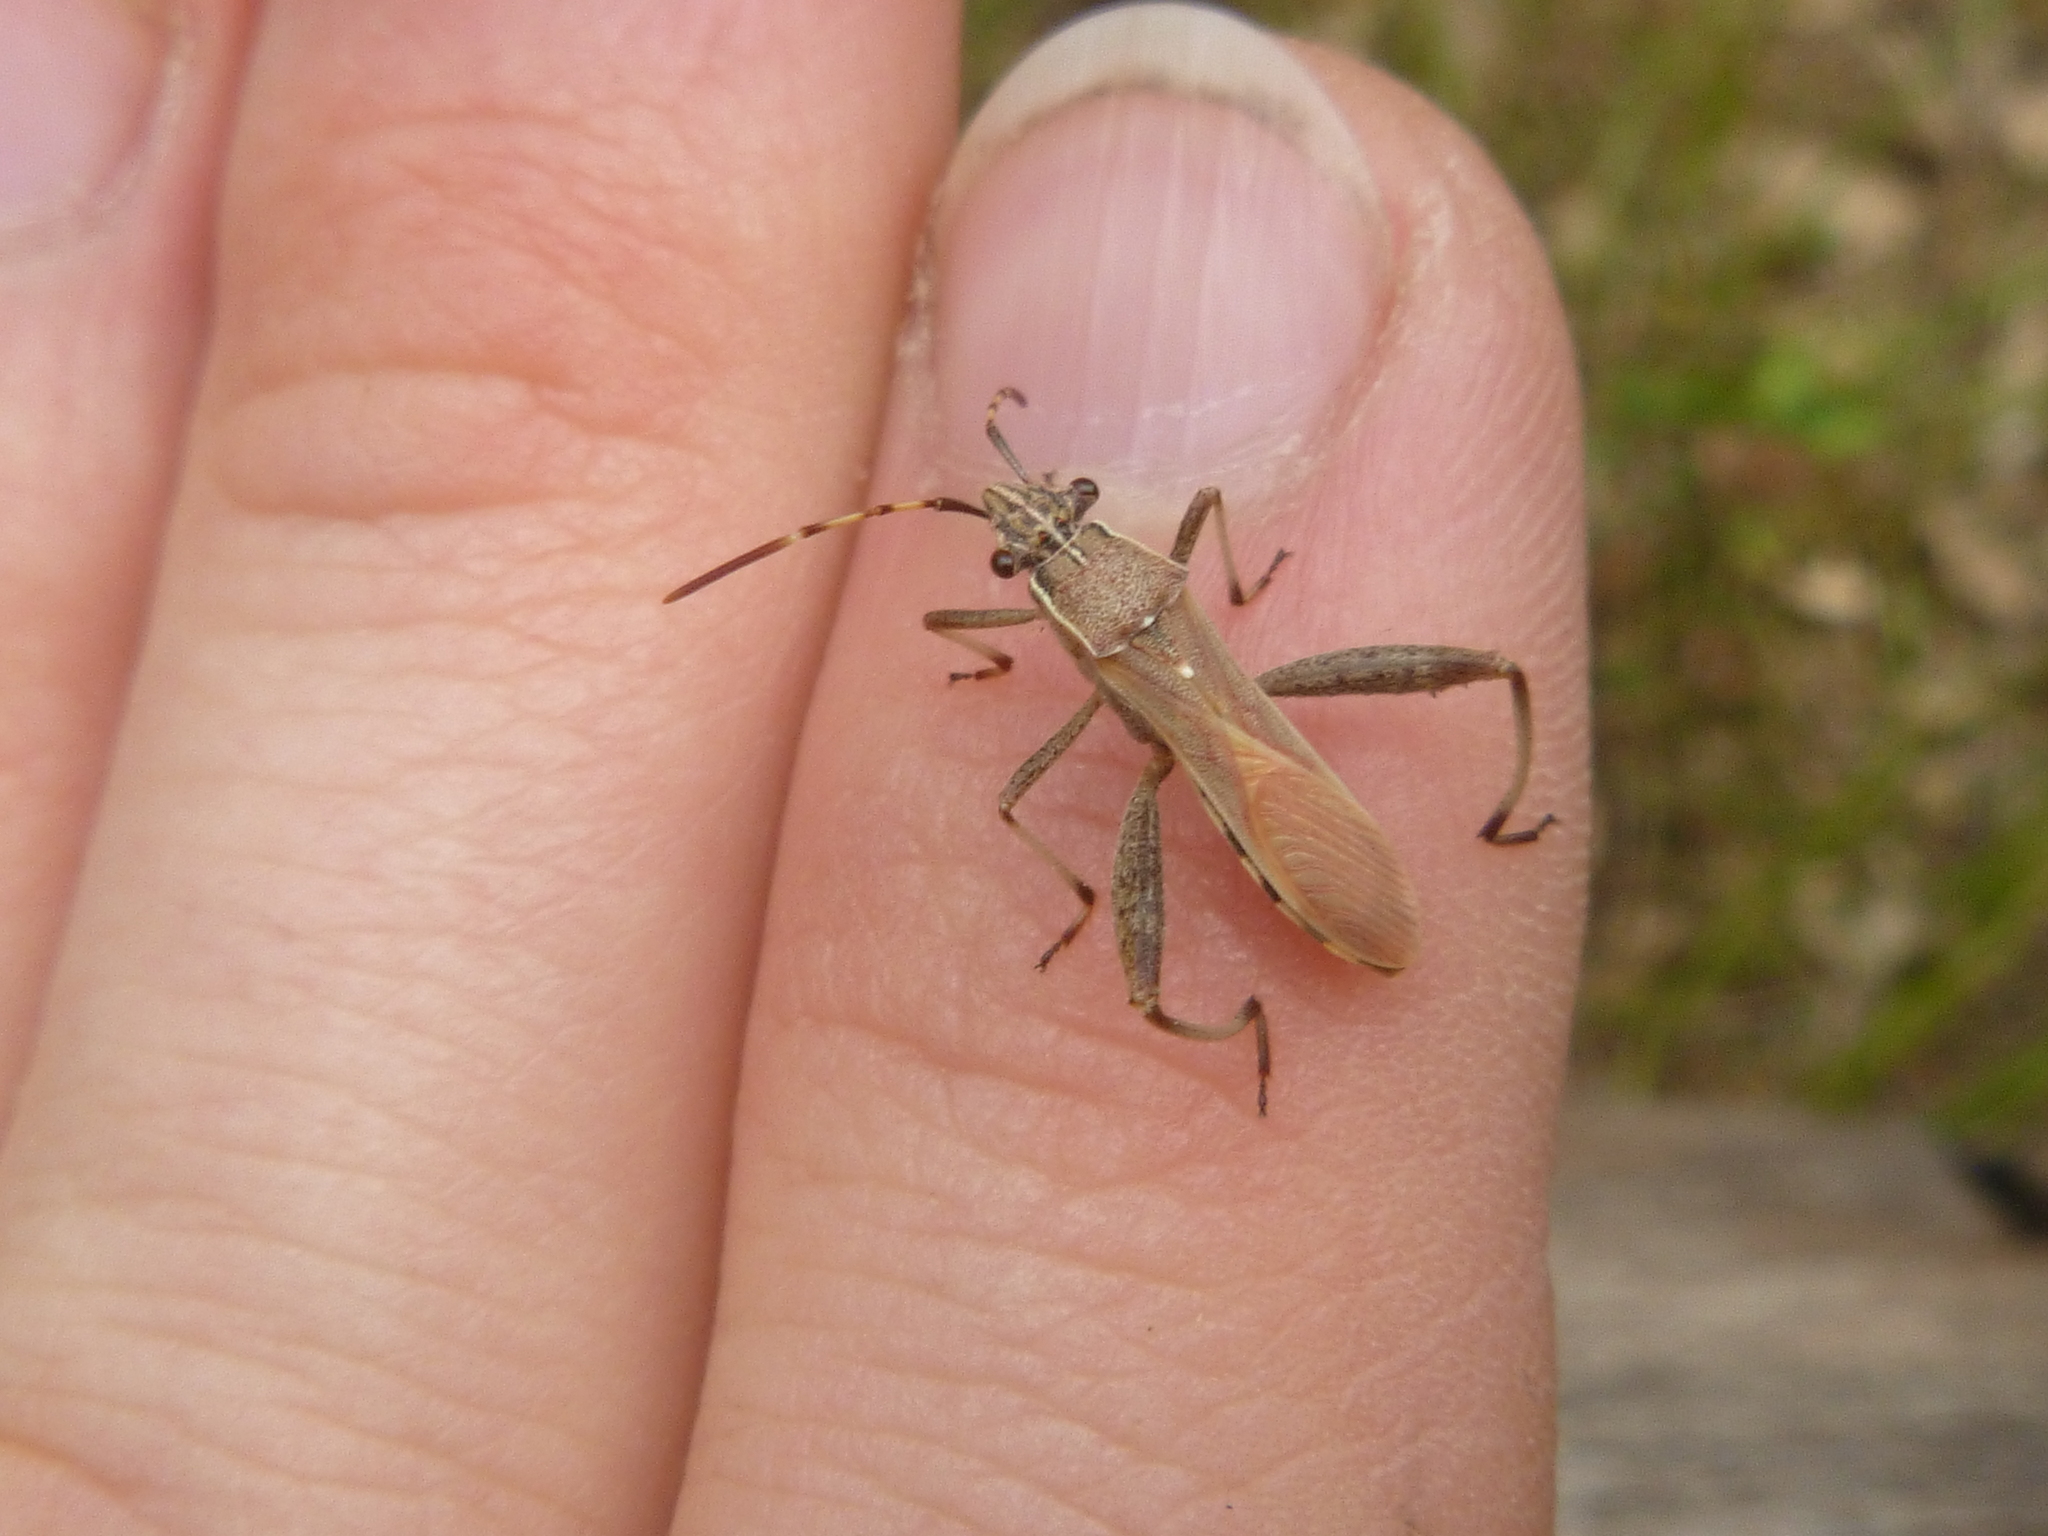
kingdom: Animalia
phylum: Arthropoda
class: Insecta
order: Hemiptera
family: Alydidae
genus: Camptopus
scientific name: Camptopus lateralis
